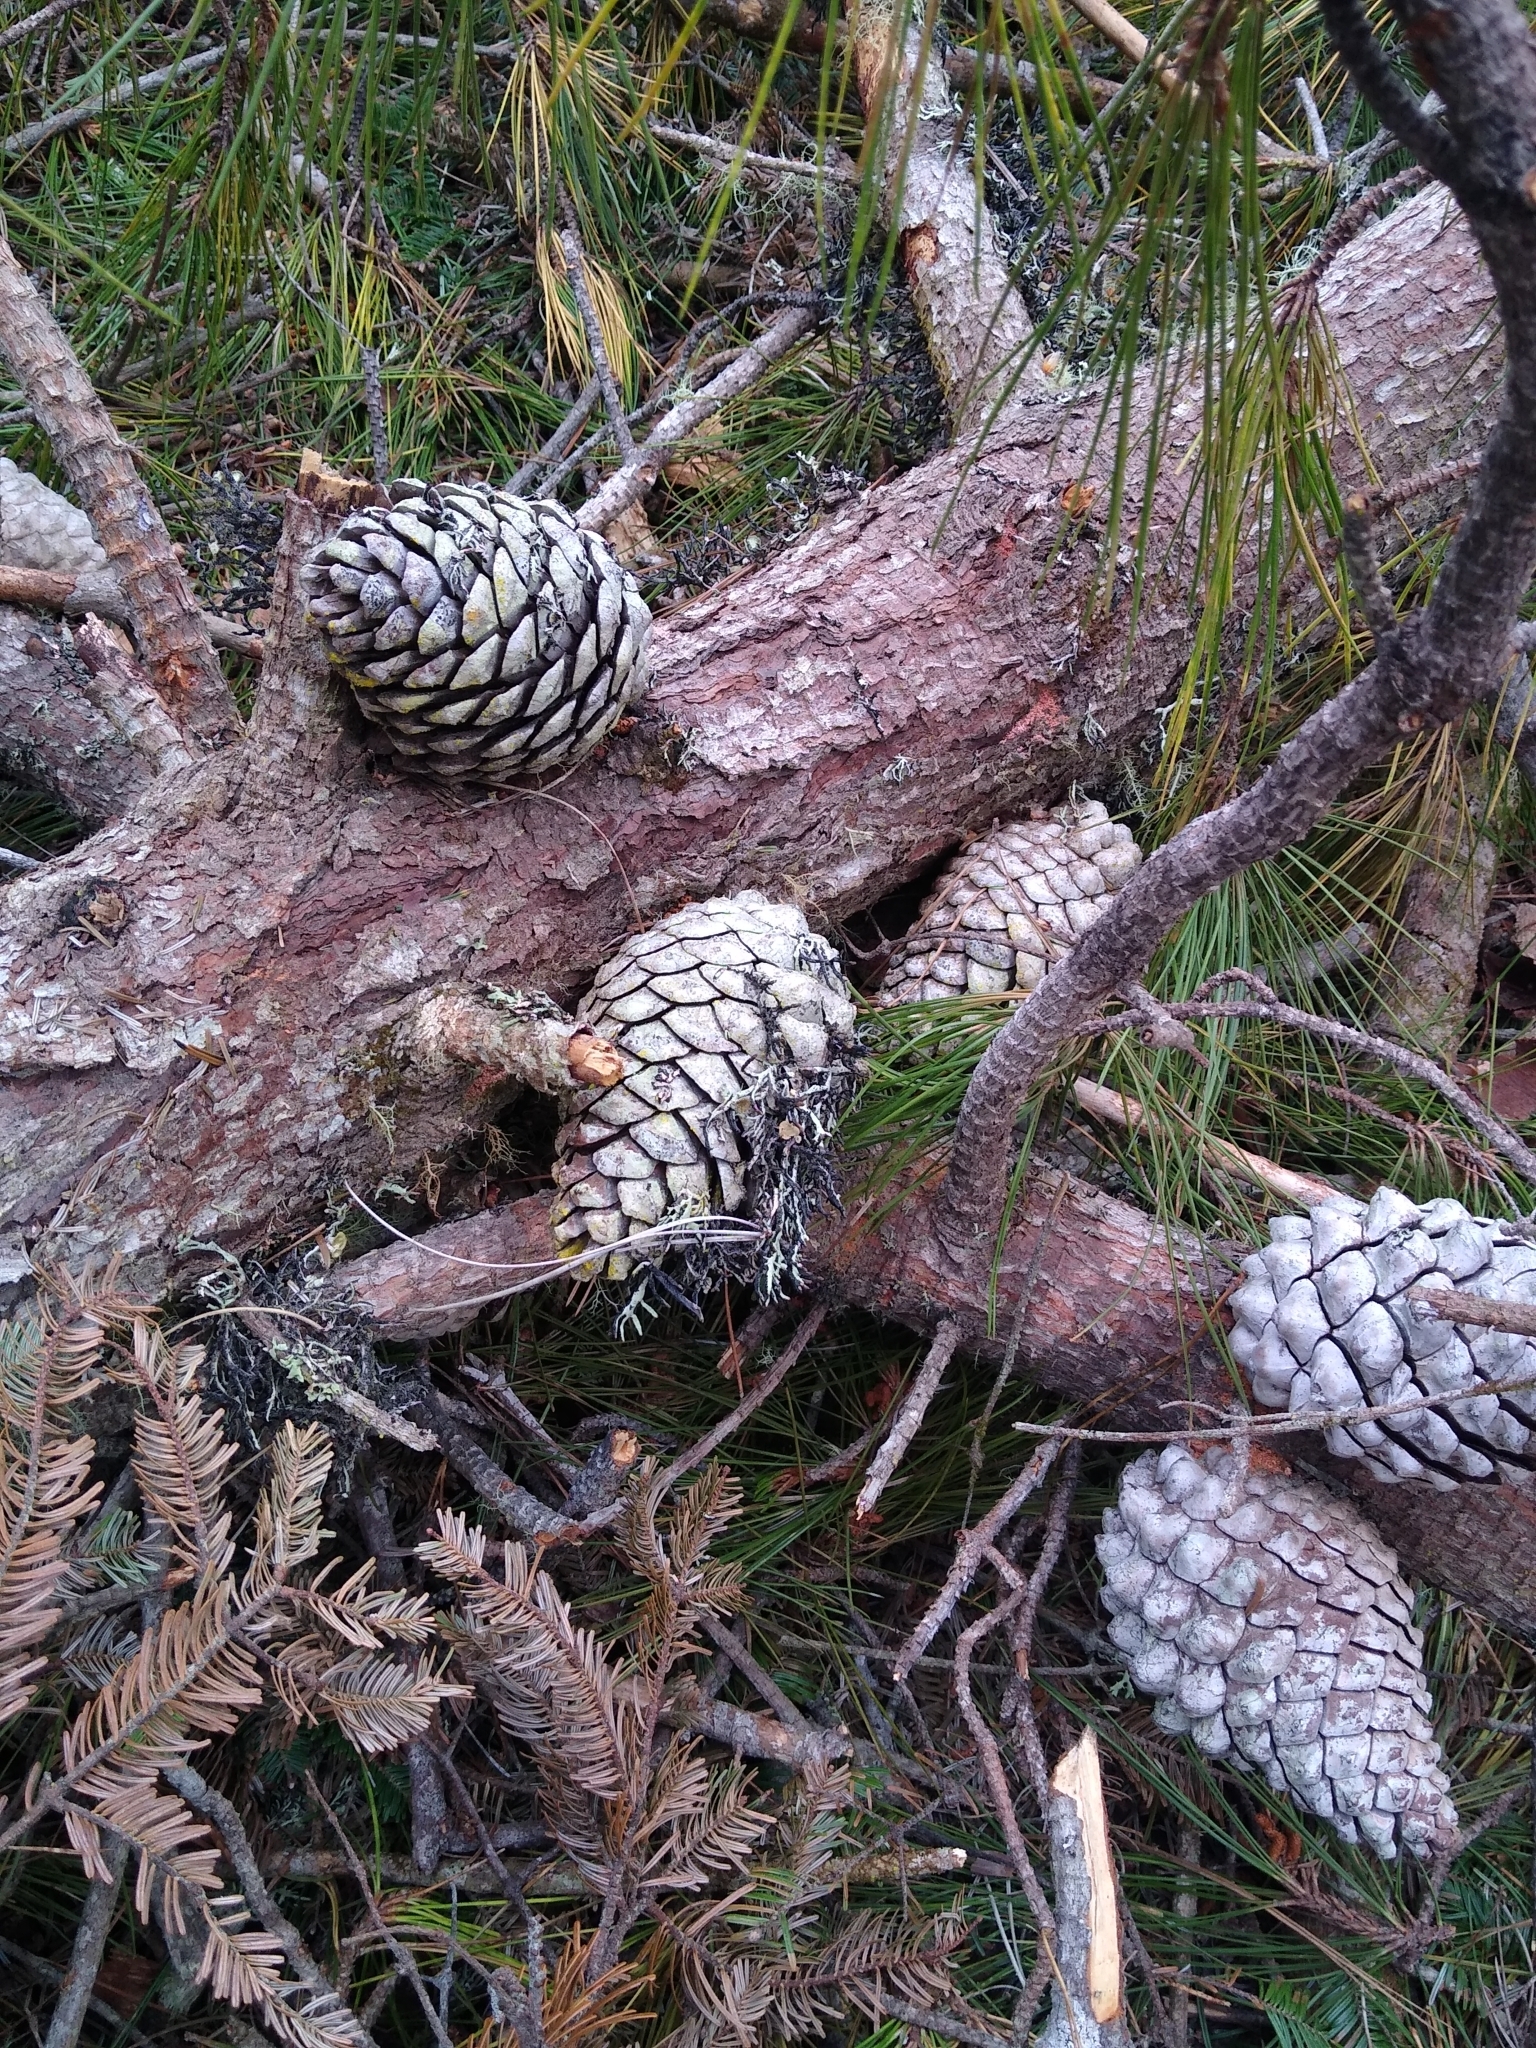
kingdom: Plantae
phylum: Tracheophyta
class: Pinopsida
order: Pinales
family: Pinaceae
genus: Pinus
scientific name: Pinus radiata
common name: Monterey pine
